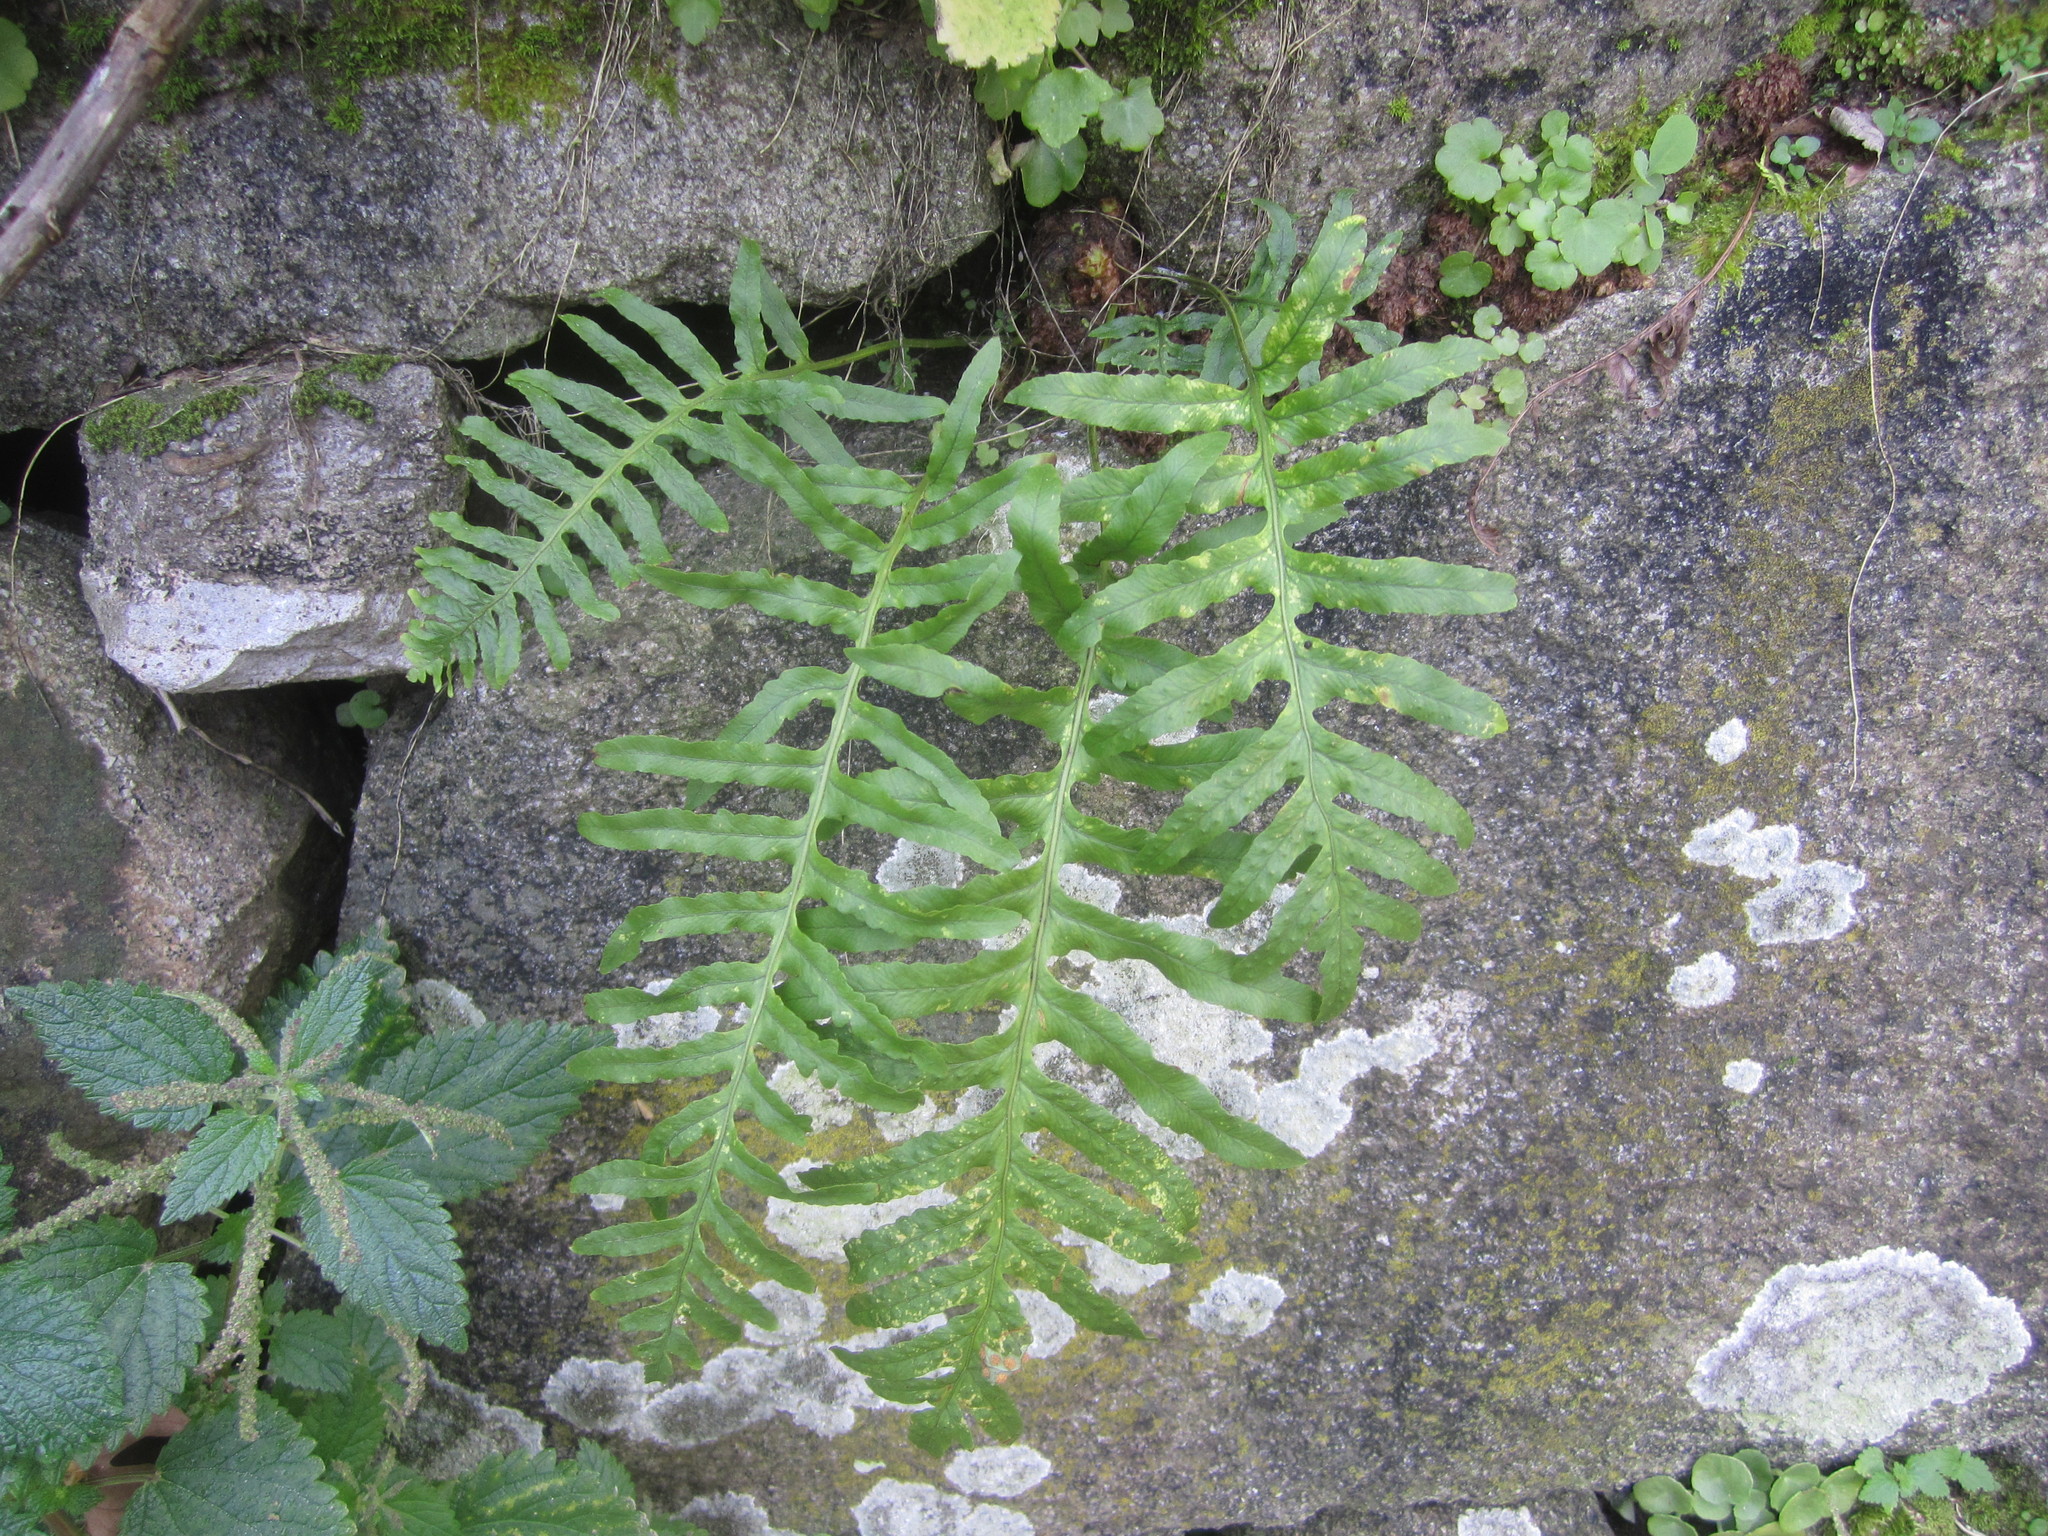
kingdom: Plantae
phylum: Tracheophyta
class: Polypodiopsida
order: Polypodiales
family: Polypodiaceae
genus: Polypodium
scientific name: Polypodium cambricum
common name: Southern polypody
